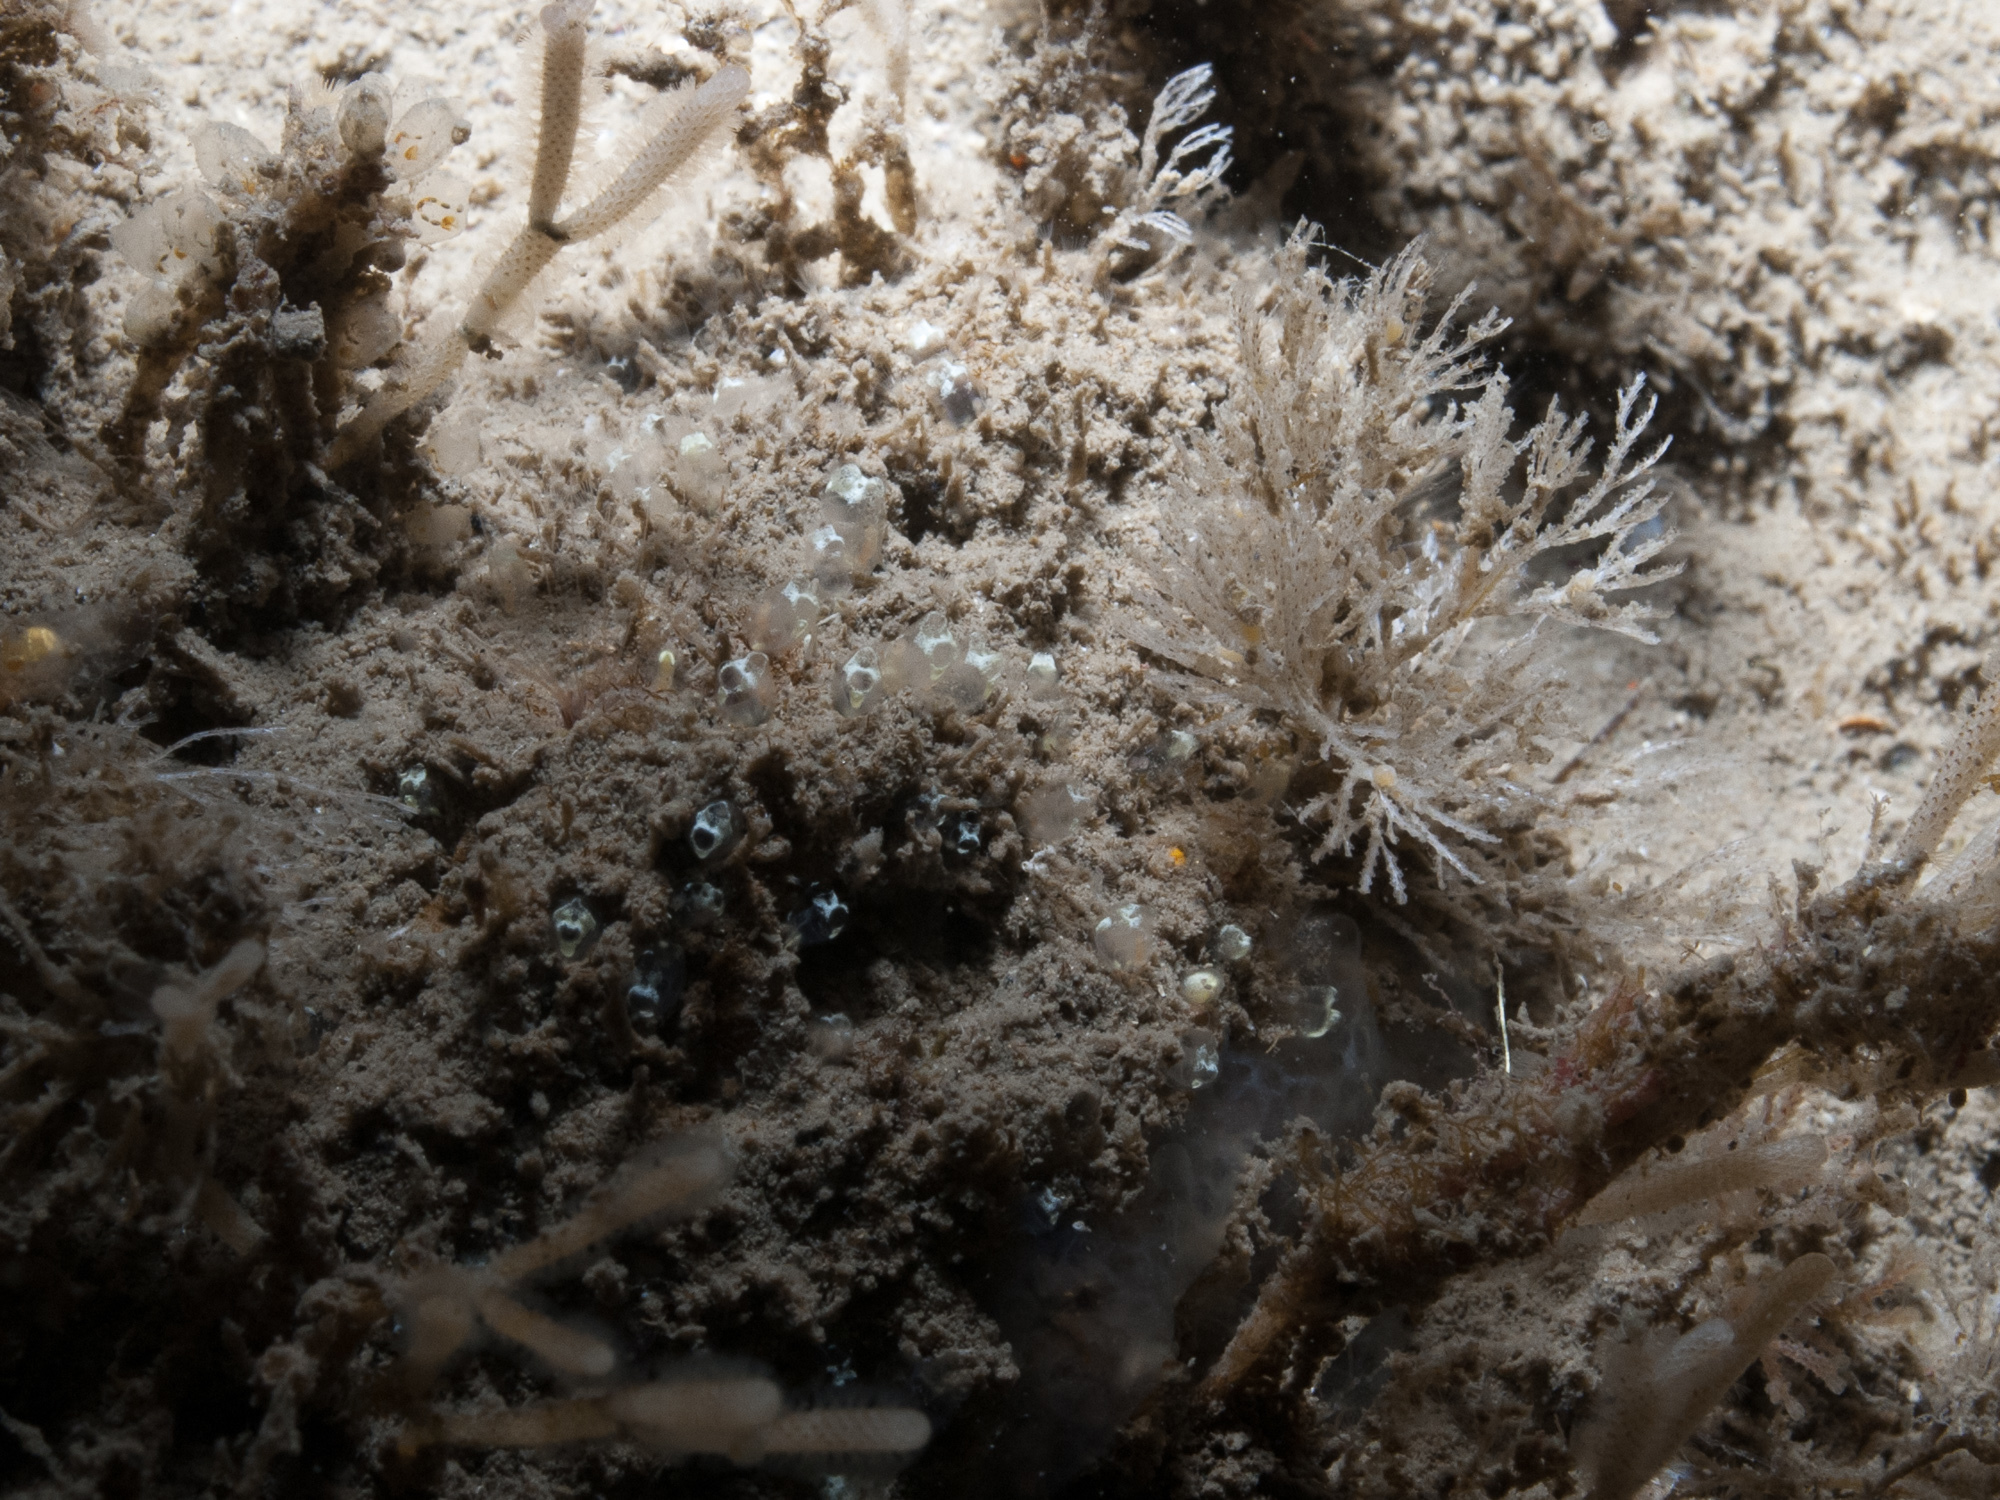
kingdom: Animalia
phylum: Chordata
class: Ascidiacea
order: Aplousobranchia
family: Clavelinidae
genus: Pycnoclavella
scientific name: Pycnoclavella stolonialis
